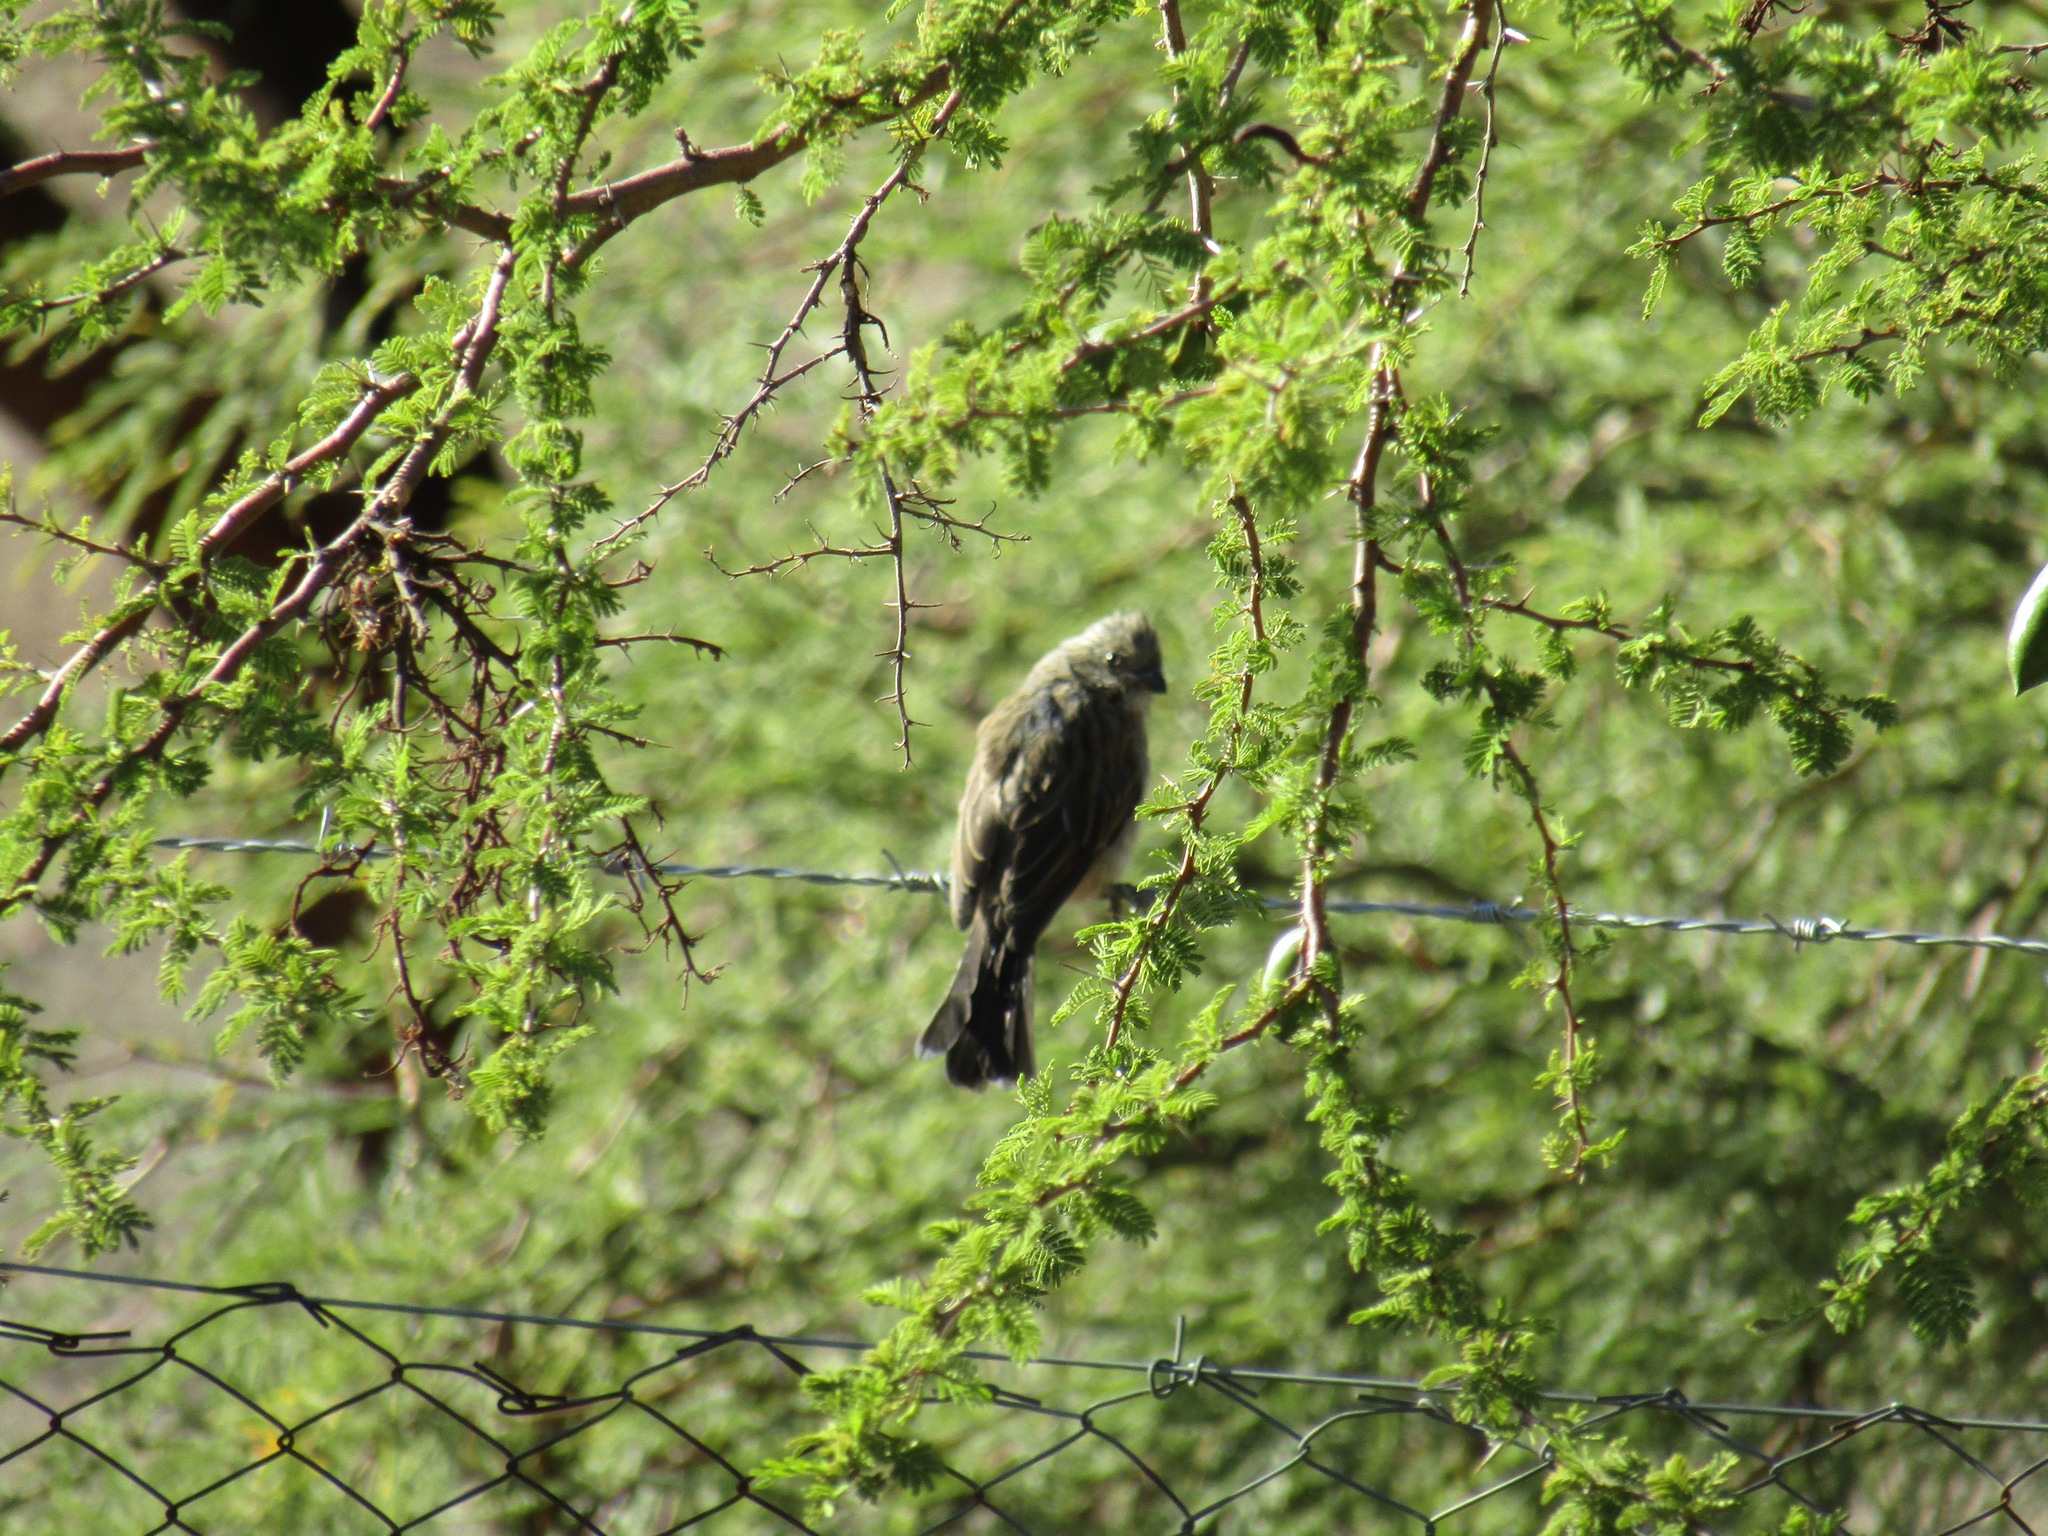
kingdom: Animalia
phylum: Chordata
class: Aves
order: Passeriformes
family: Thraupidae
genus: Diuca
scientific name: Diuca diuca
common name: Common diuca finch
